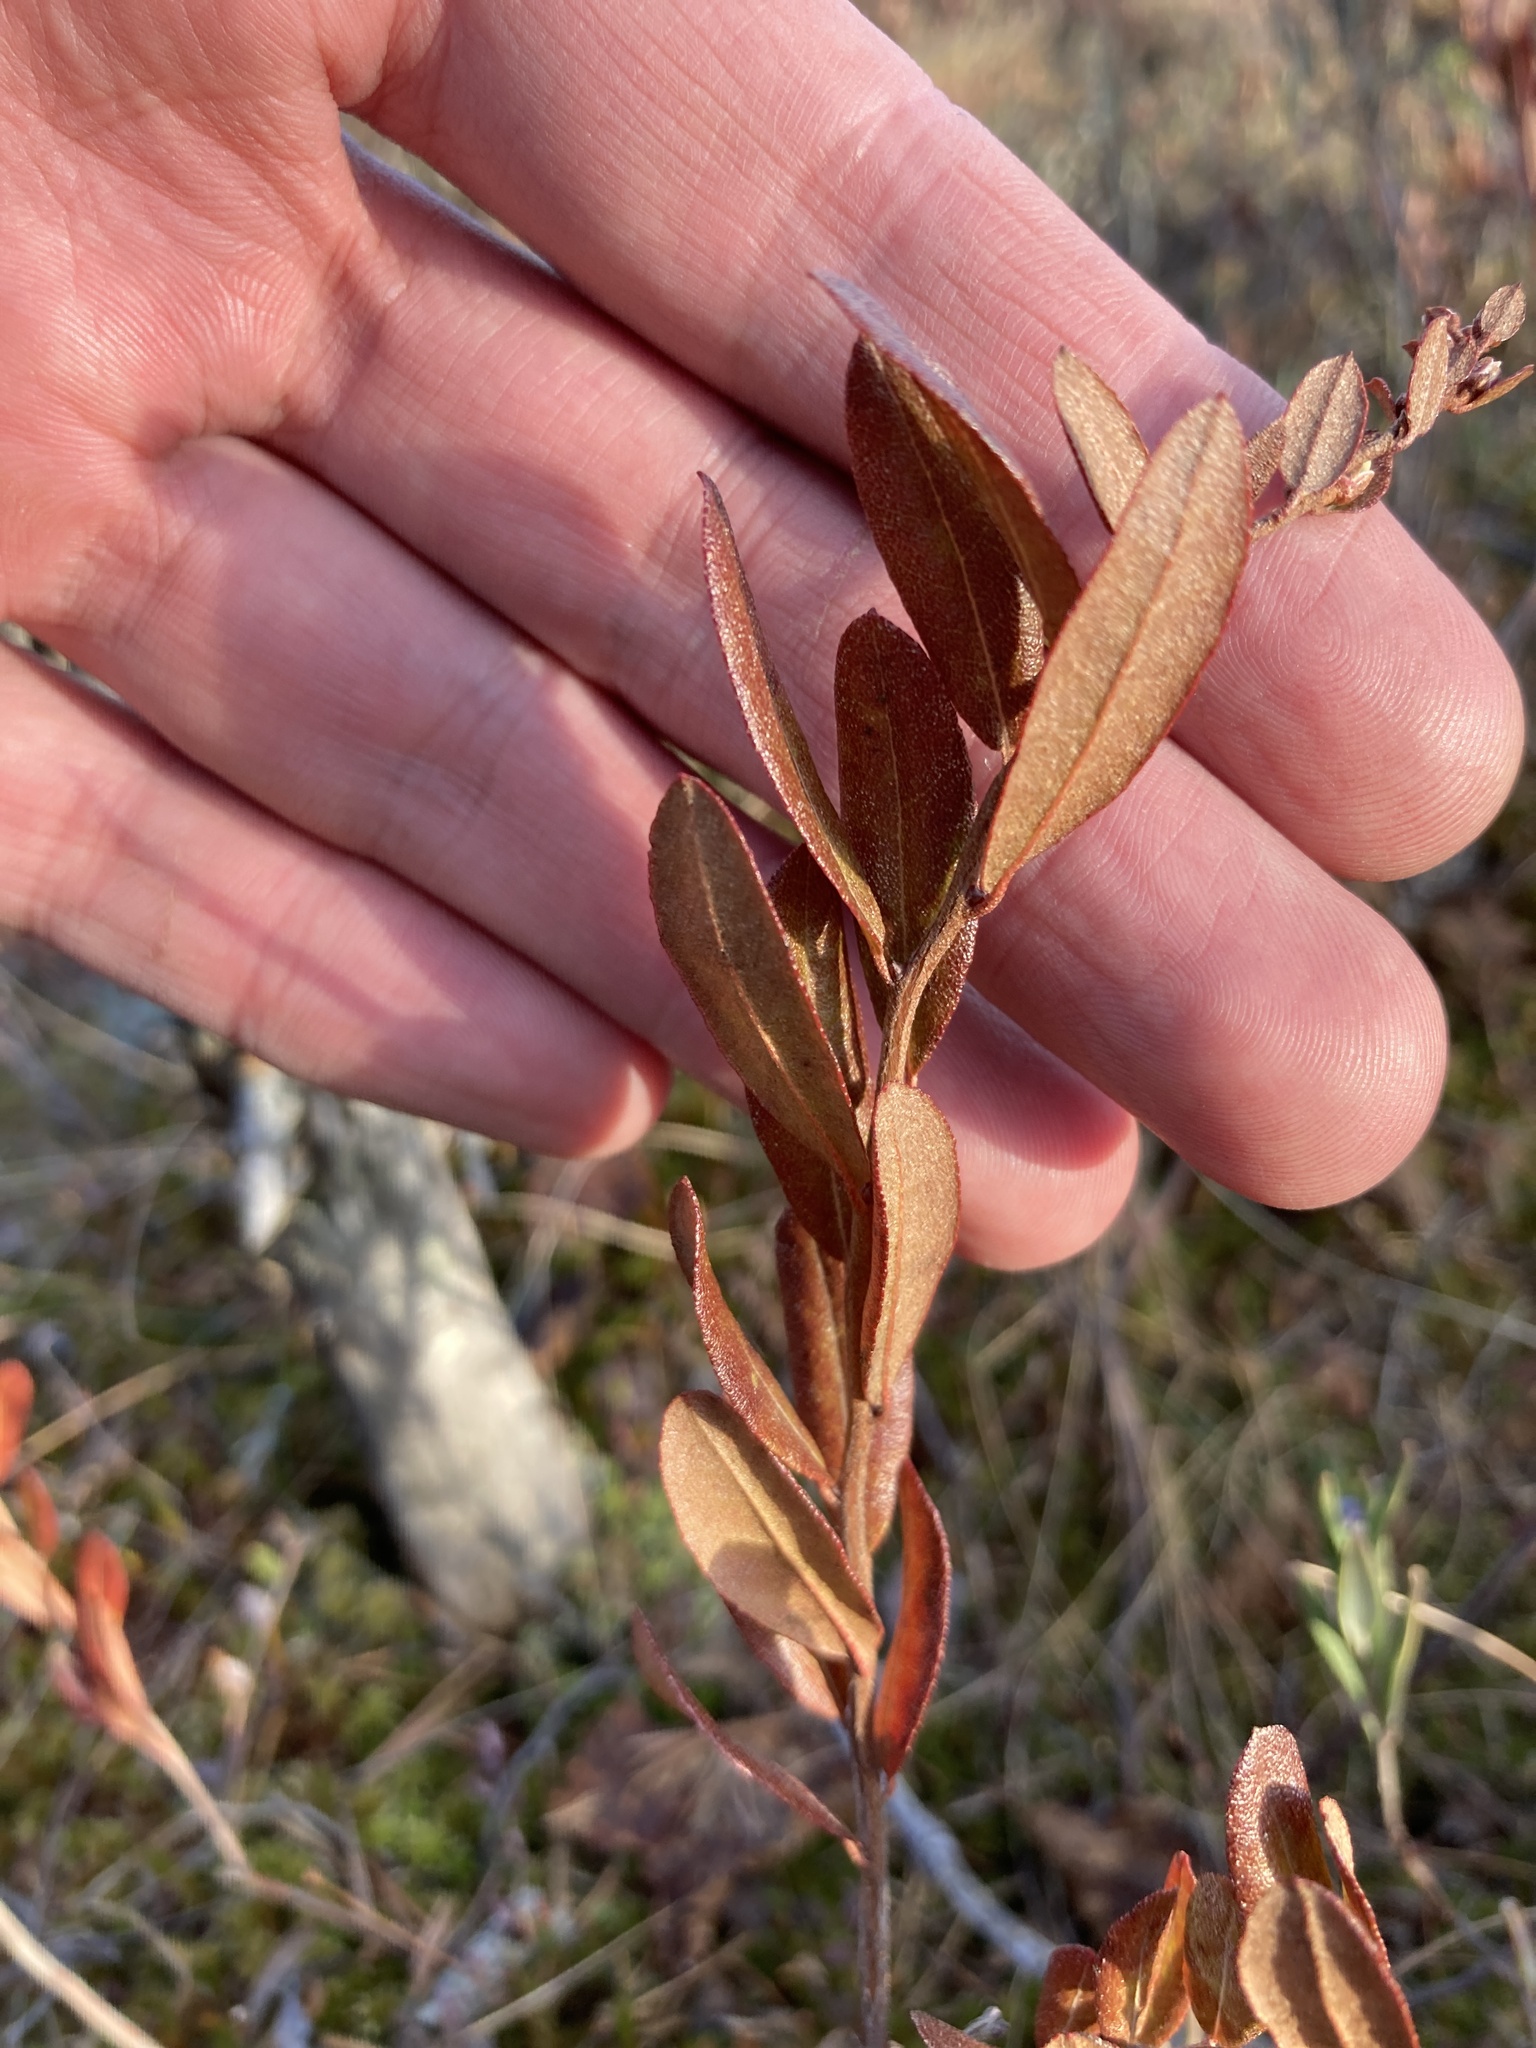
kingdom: Plantae
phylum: Tracheophyta
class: Magnoliopsida
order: Ericales
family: Ericaceae
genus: Chamaedaphne
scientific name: Chamaedaphne calyculata
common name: Leatherleaf
